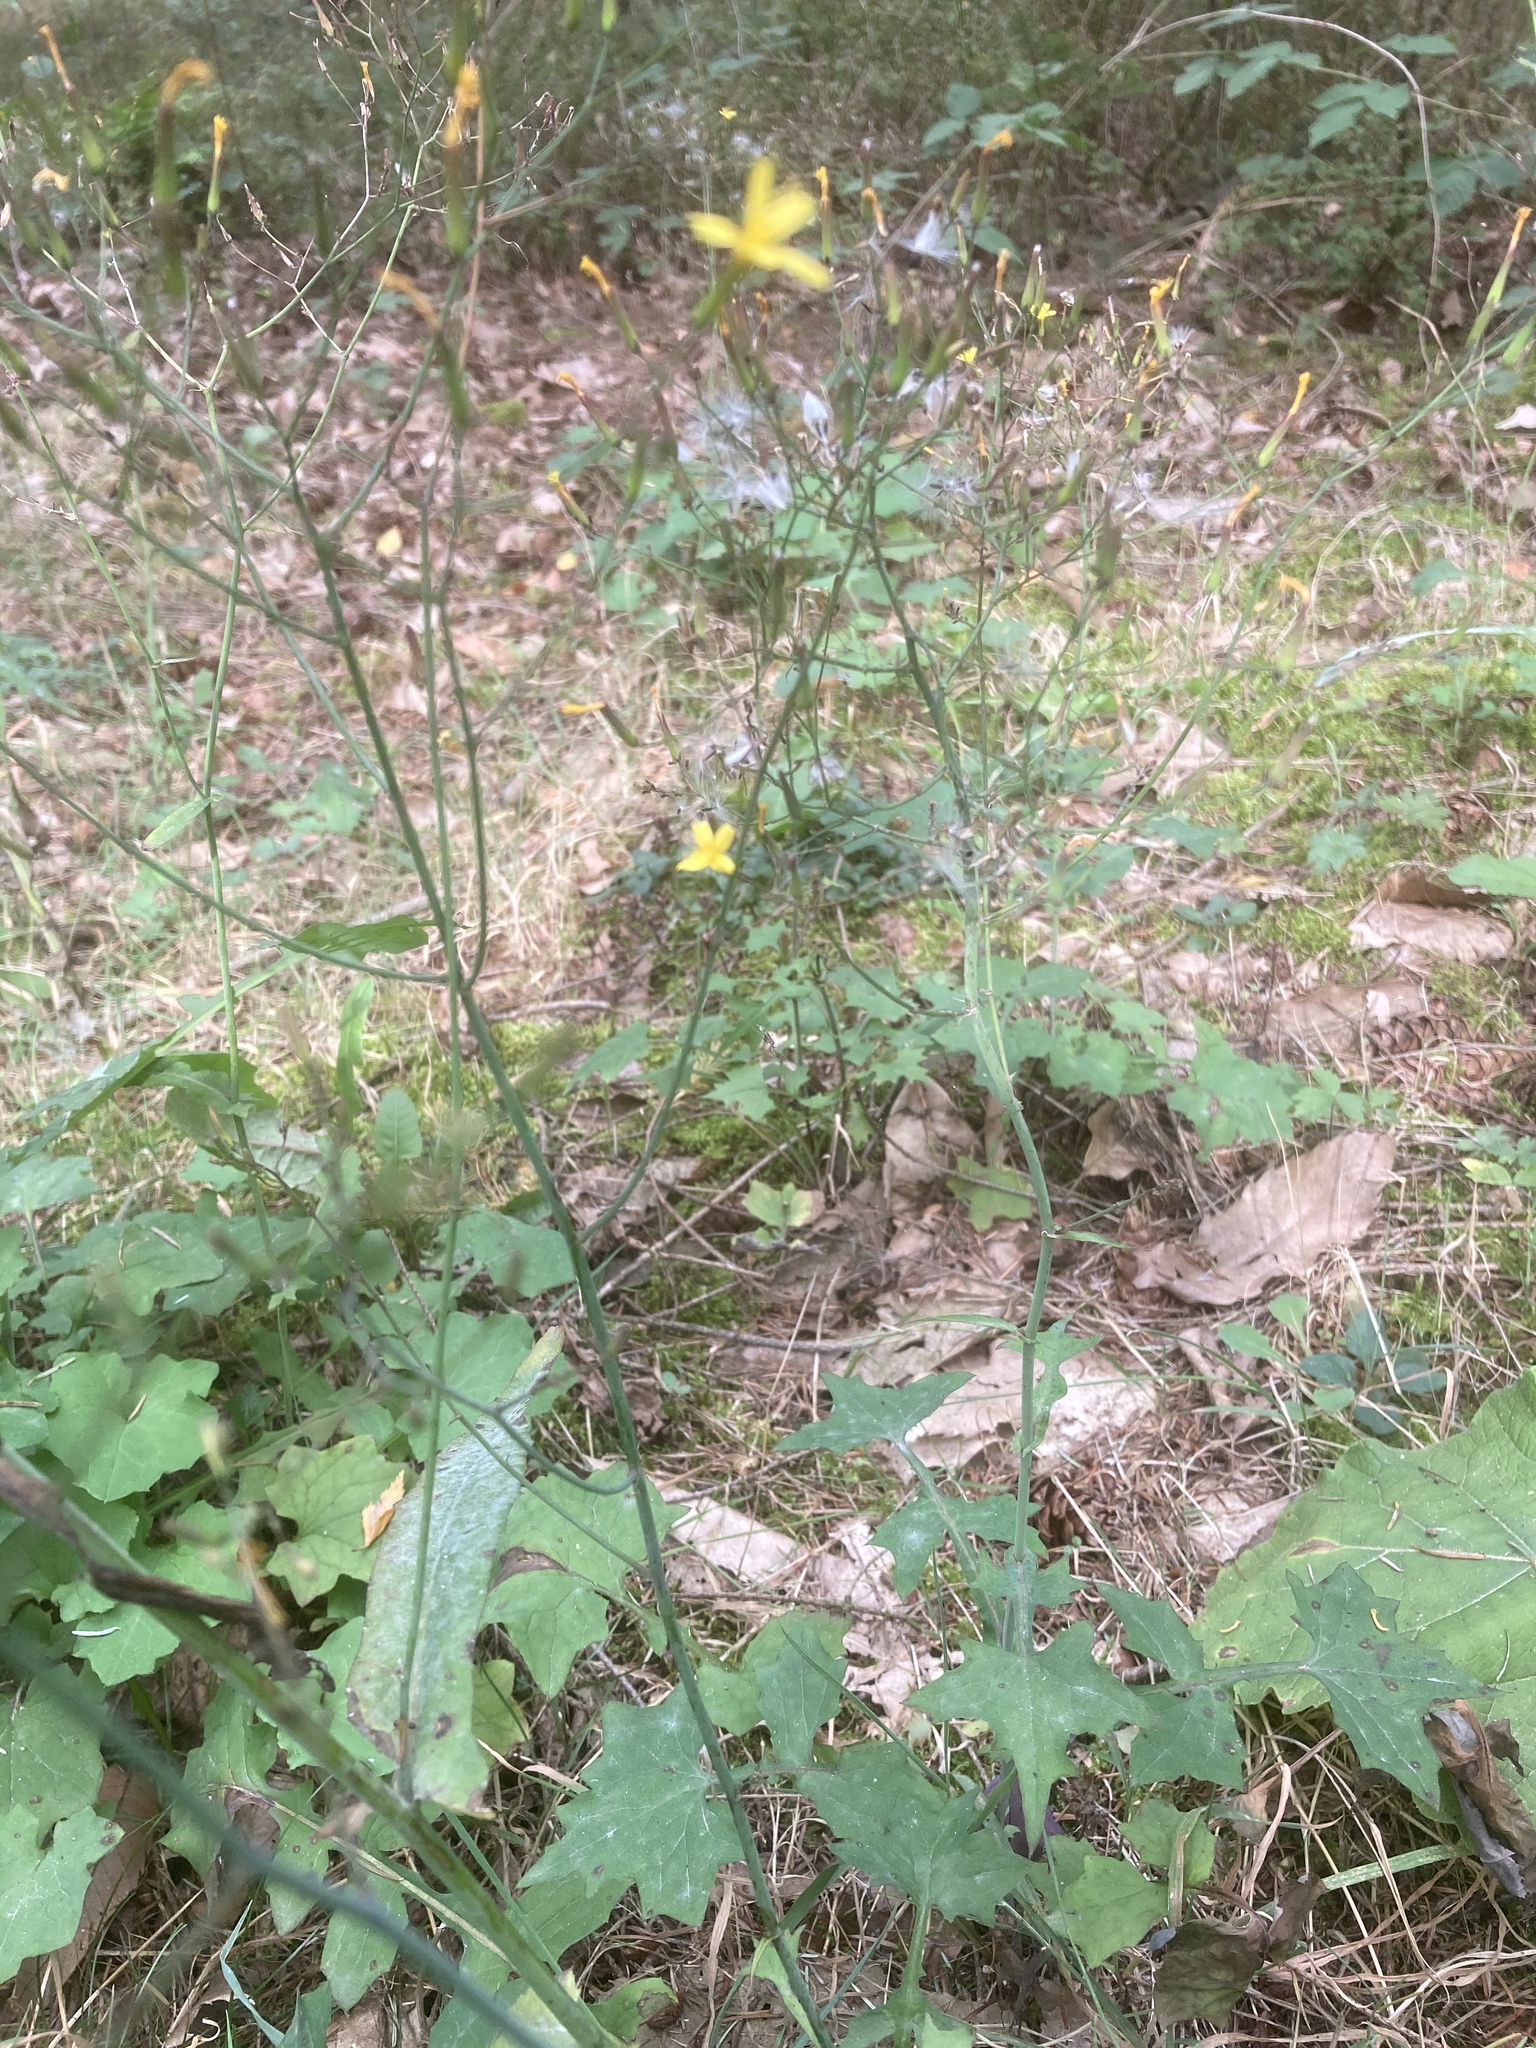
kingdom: Plantae
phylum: Tracheophyta
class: Magnoliopsida
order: Asterales
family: Asteraceae
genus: Mycelis
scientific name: Mycelis muralis
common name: Wall lettuce
